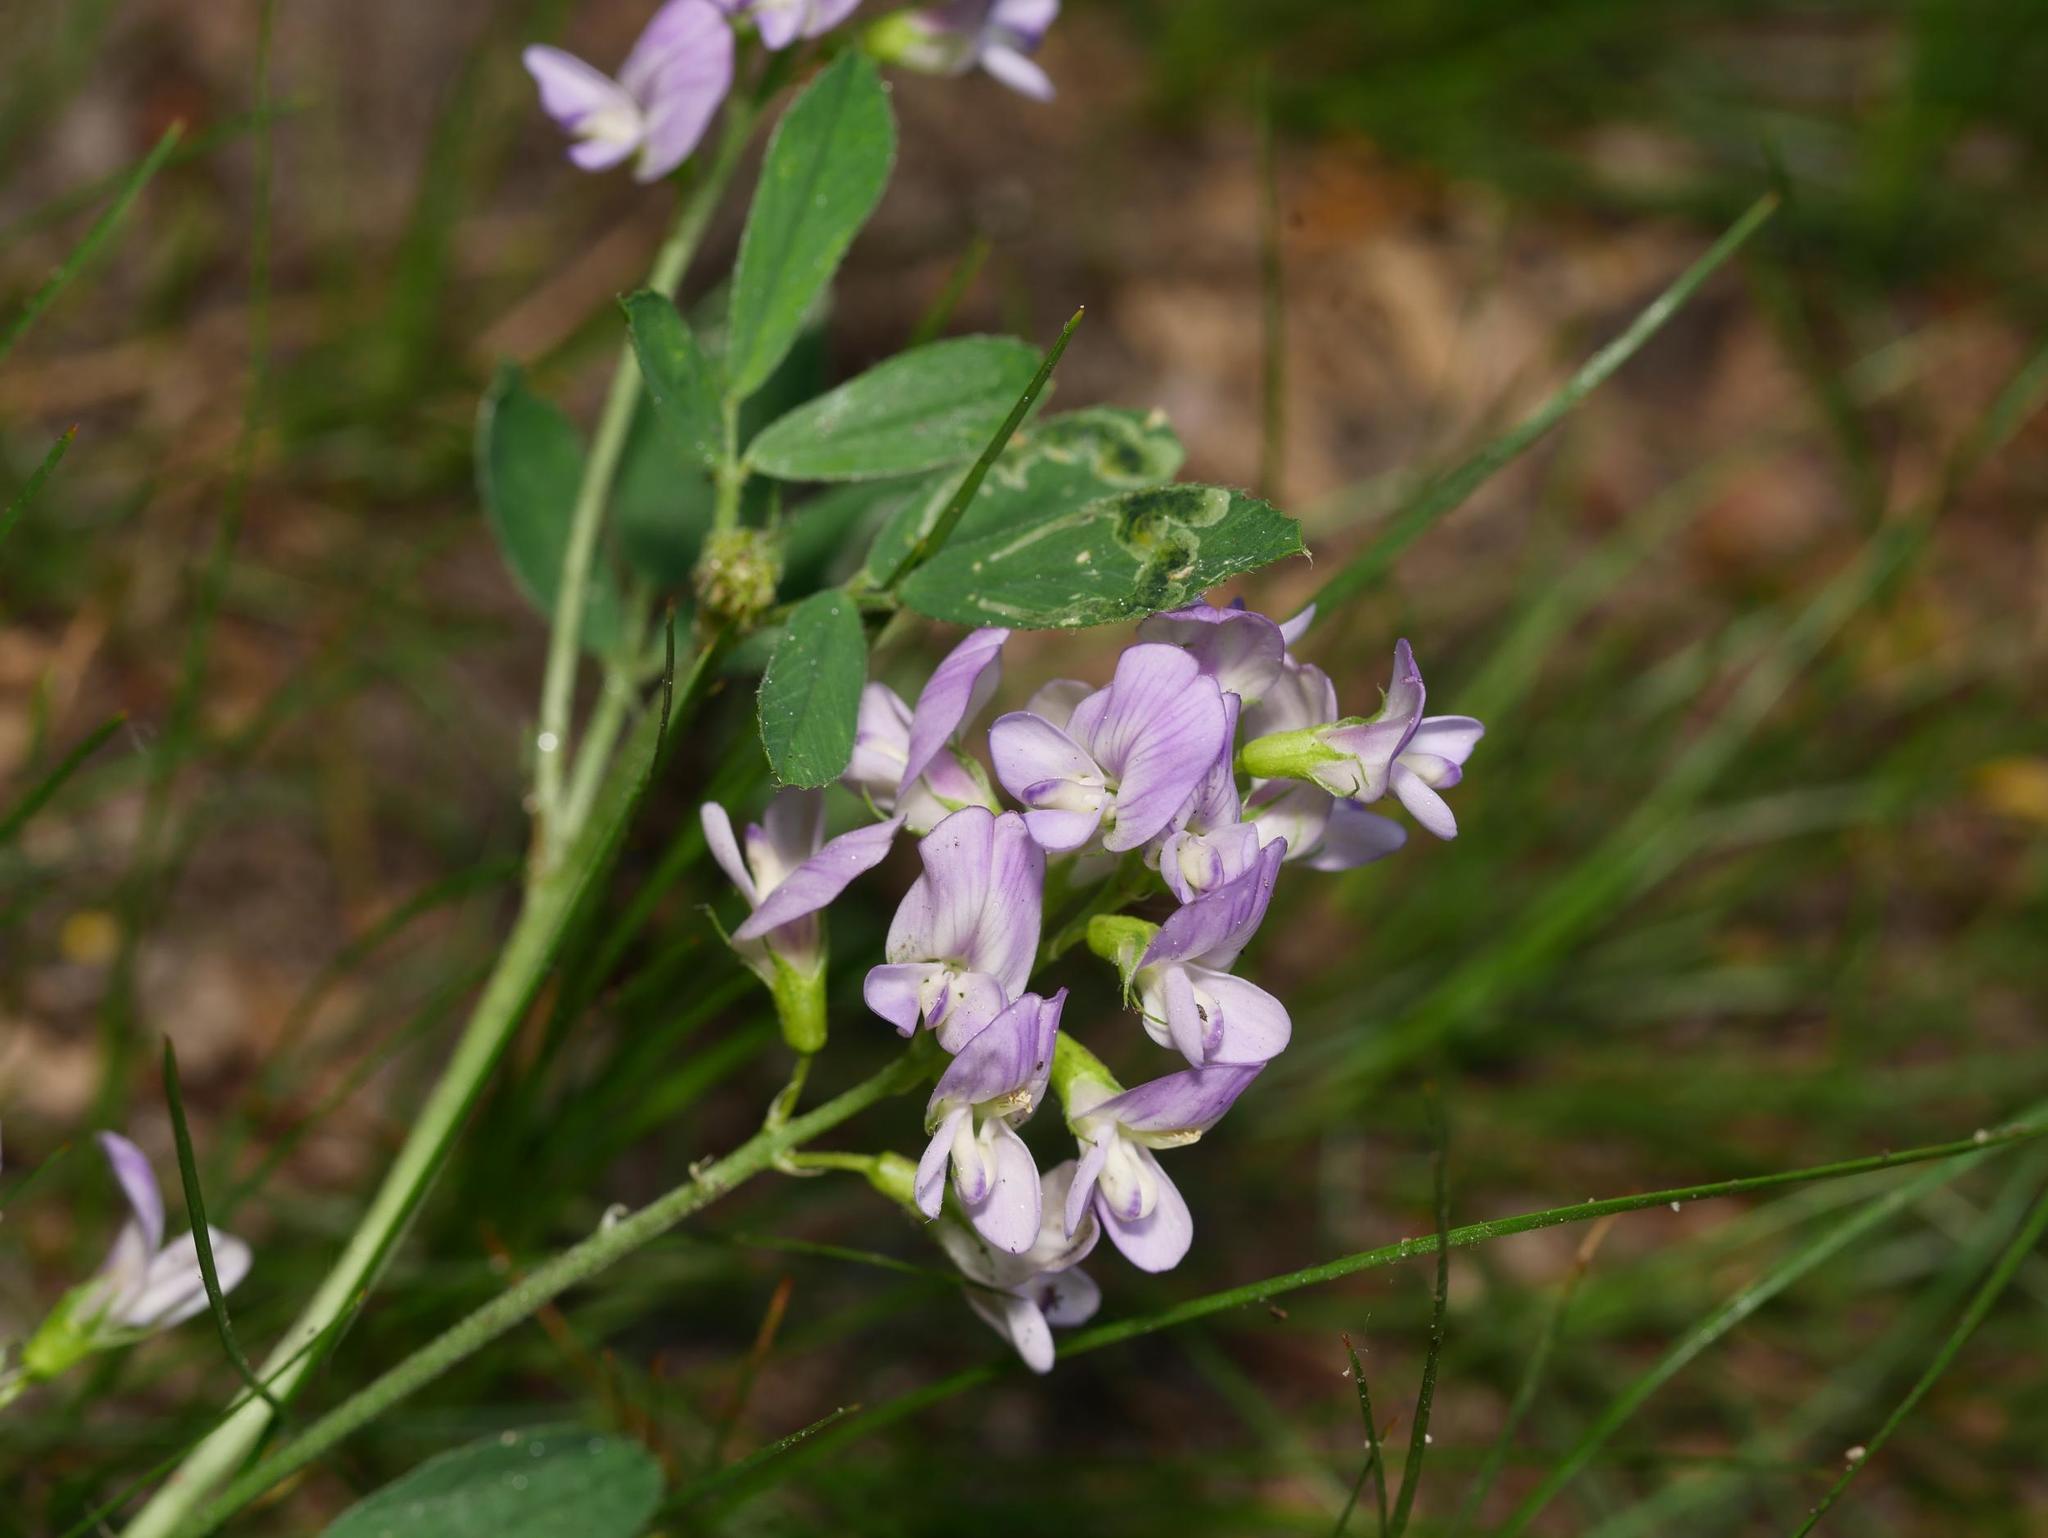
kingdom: Plantae
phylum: Tracheophyta
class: Magnoliopsida
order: Fabales
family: Fabaceae
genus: Medicago
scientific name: Medicago sativa
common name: Alfalfa
